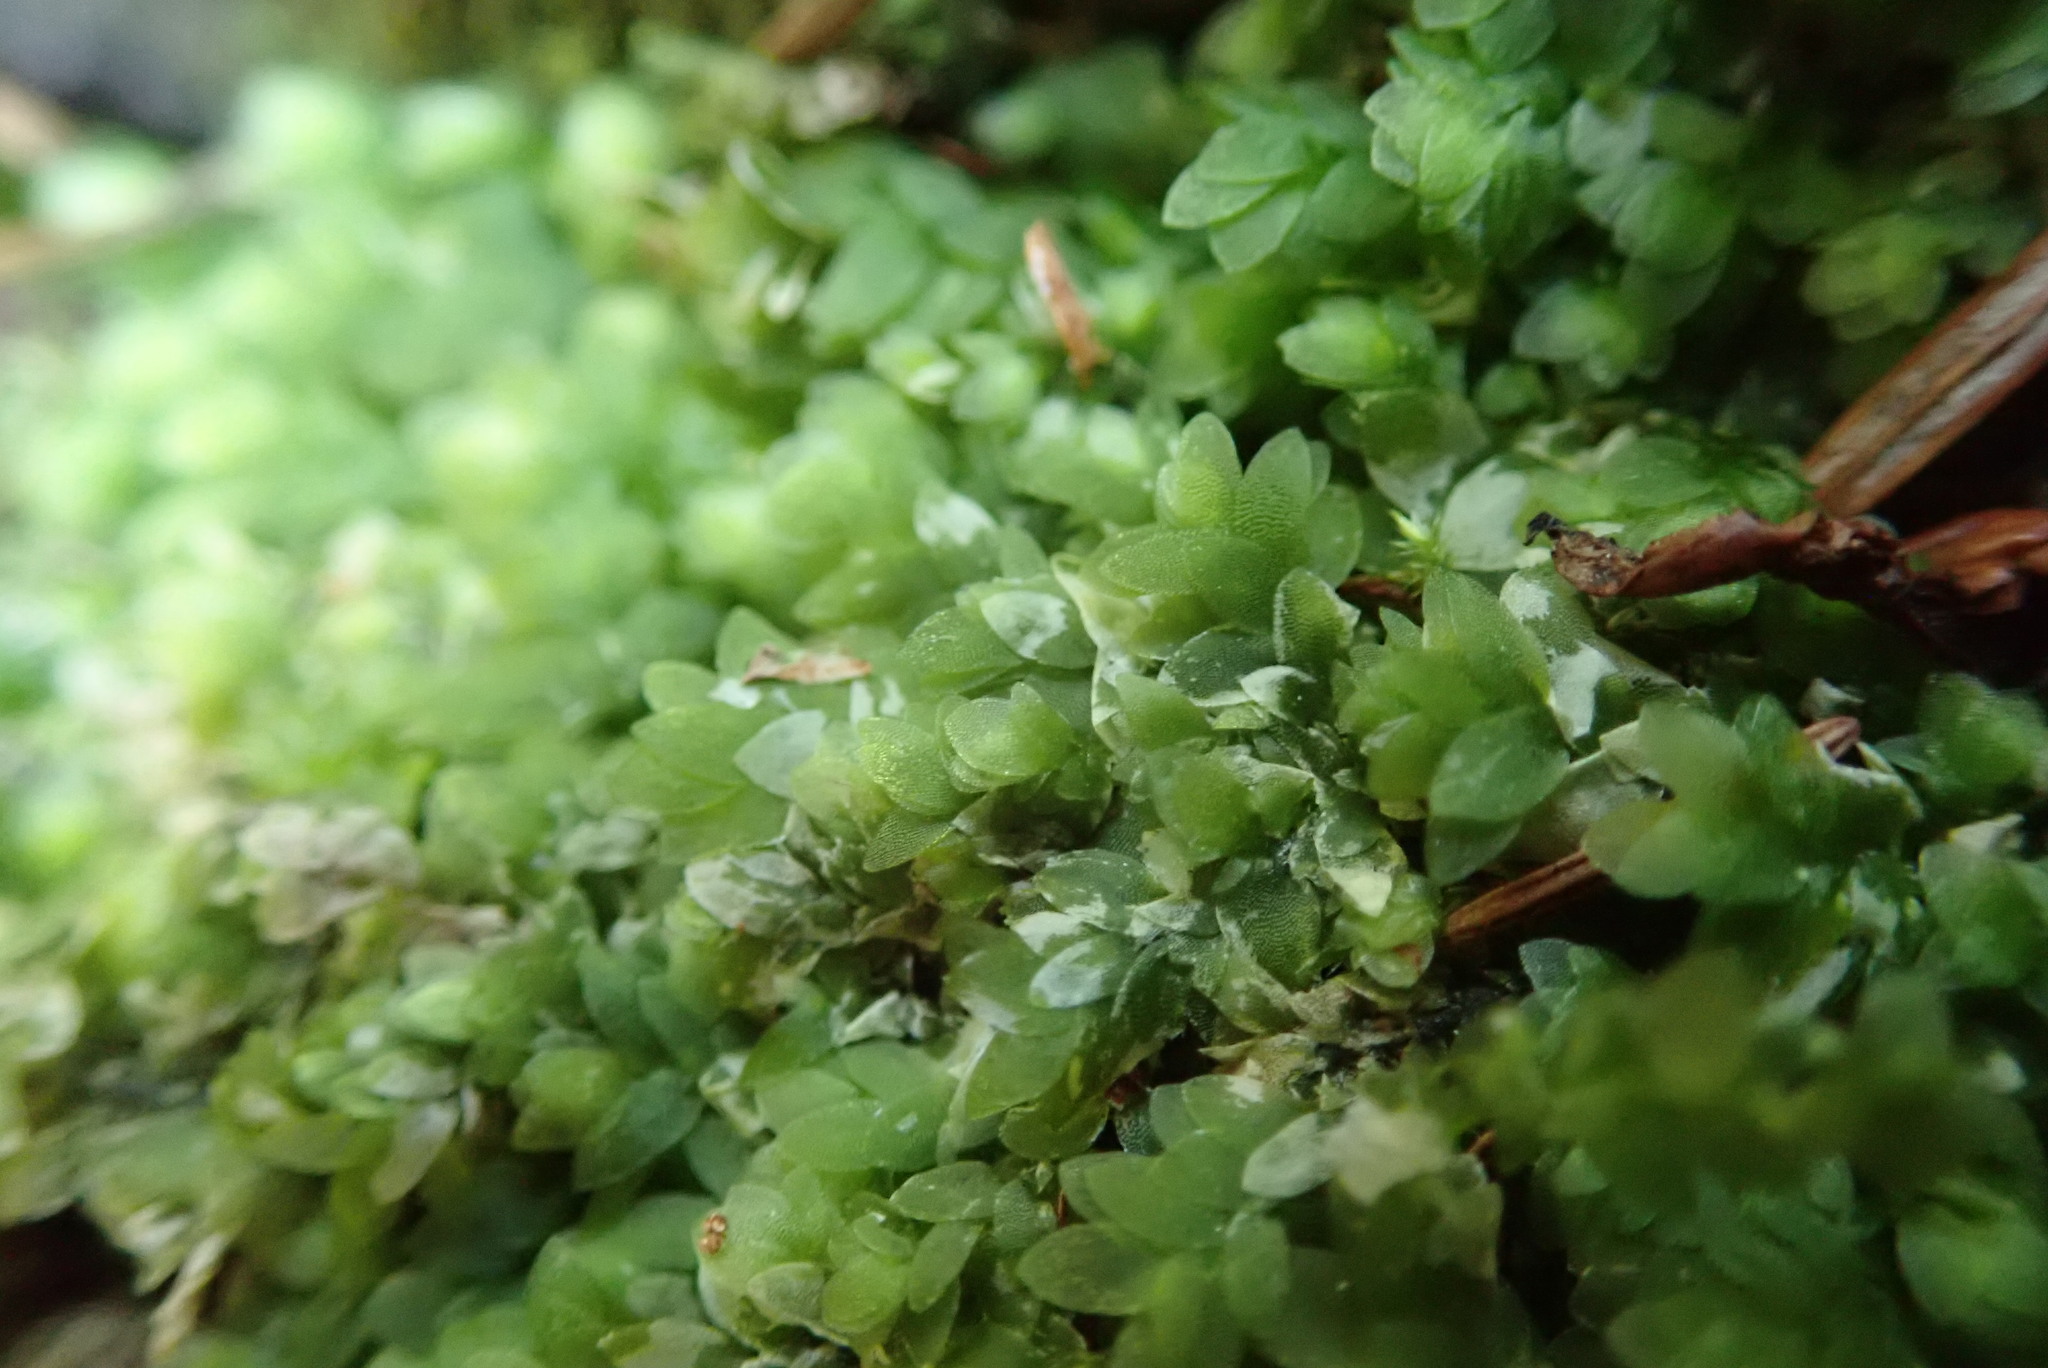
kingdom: Plantae
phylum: Bryophyta
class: Bryopsida
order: Hookeriales
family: Hookeriaceae
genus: Hookeria
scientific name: Hookeria lucens
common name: Shining hookeria
